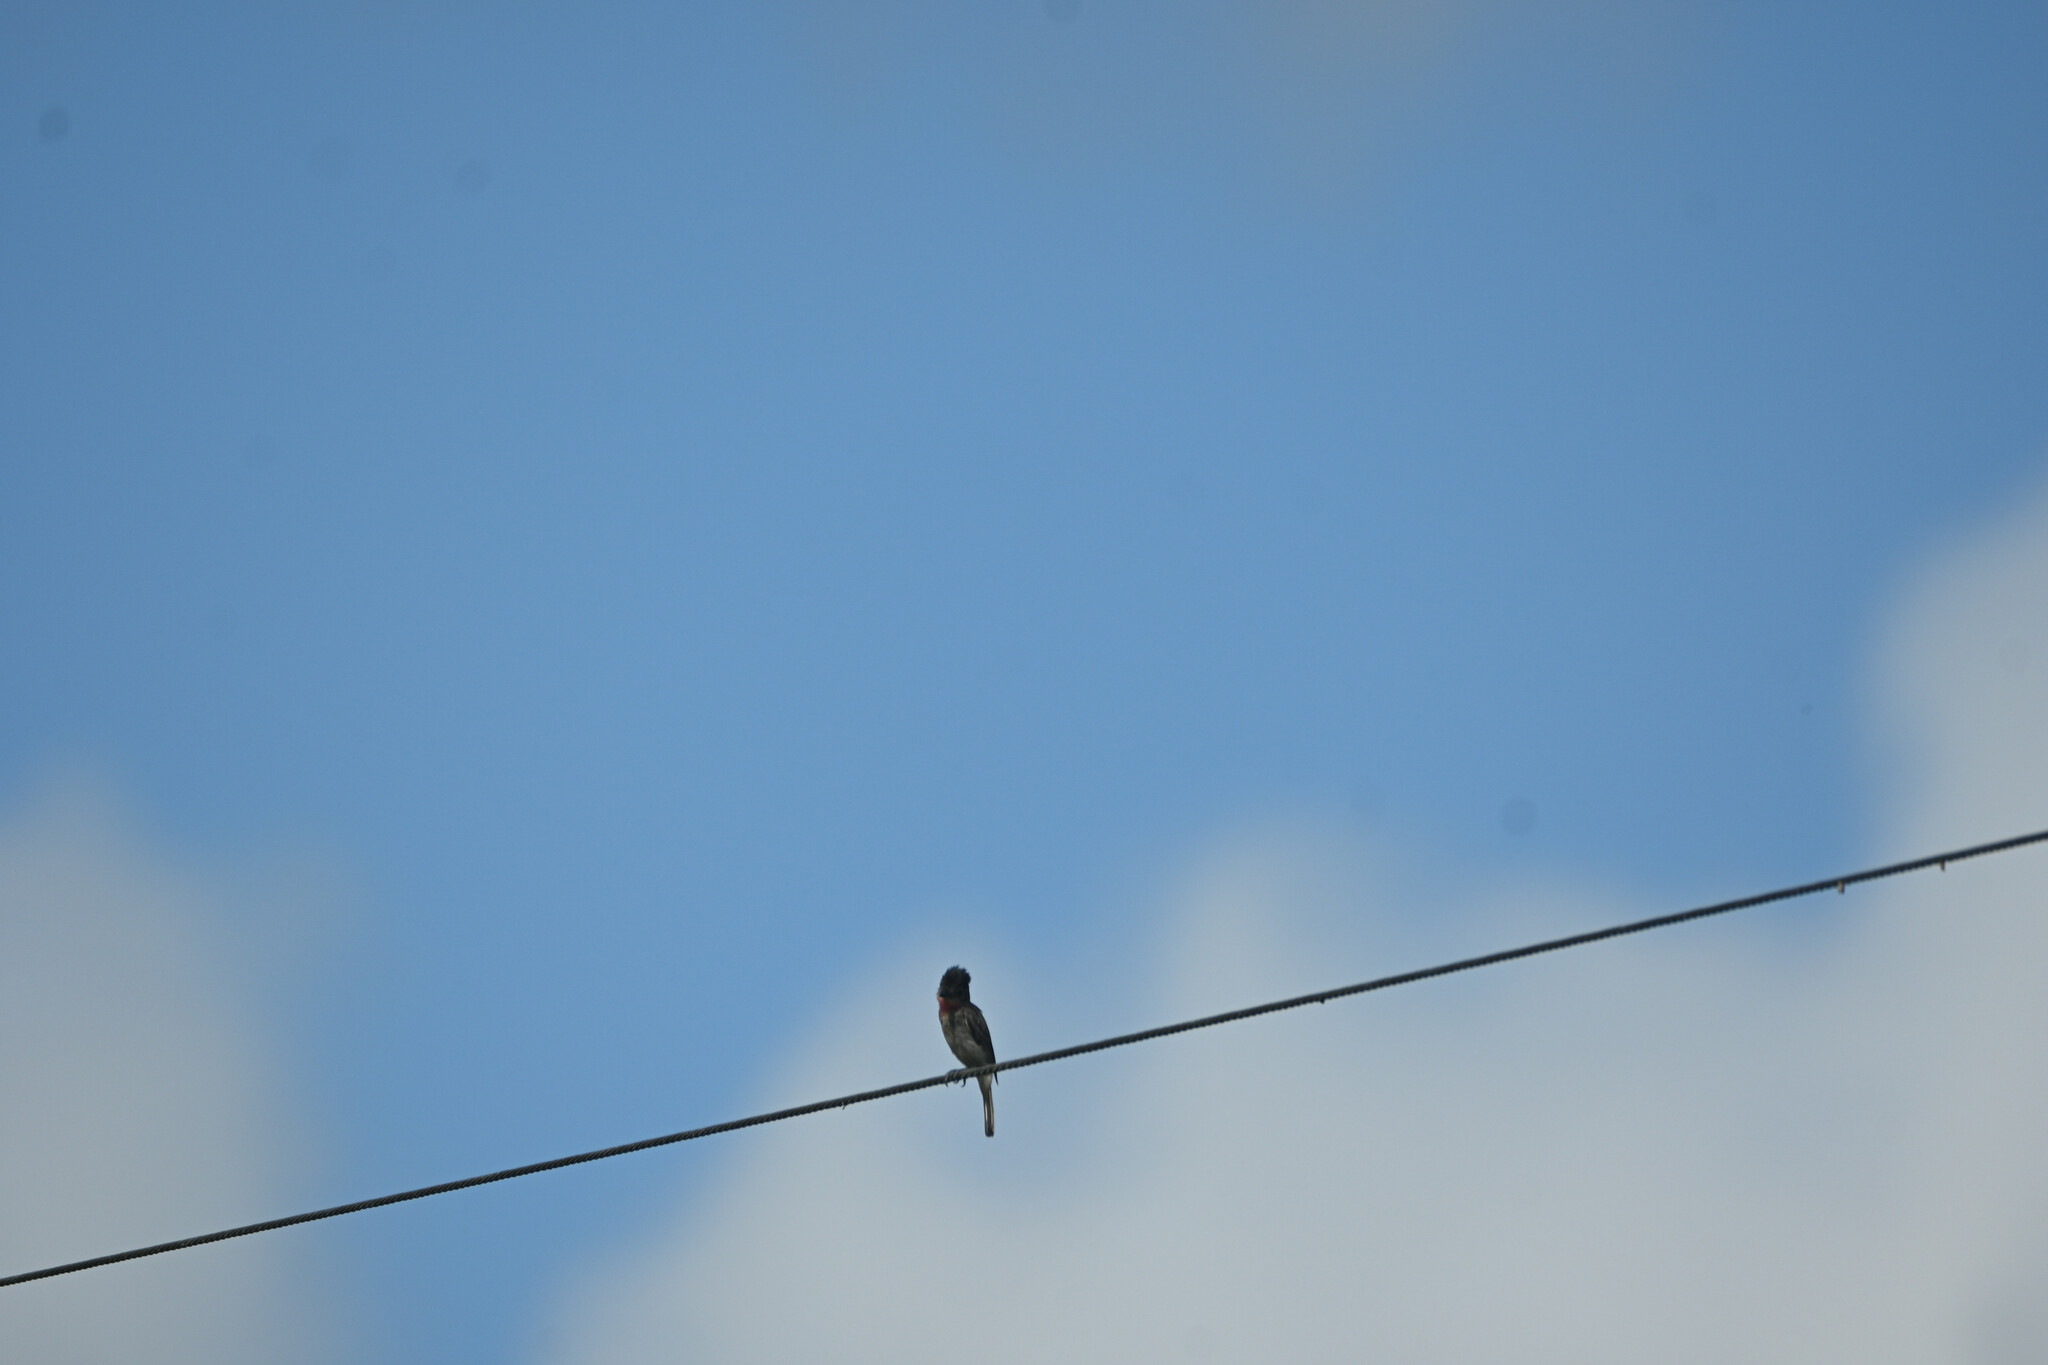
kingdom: Animalia
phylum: Chordata
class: Aves
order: Passeriformes
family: Cotingidae
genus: Pachyramphus
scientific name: Pachyramphus aglaiae
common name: Rose-throated becard
